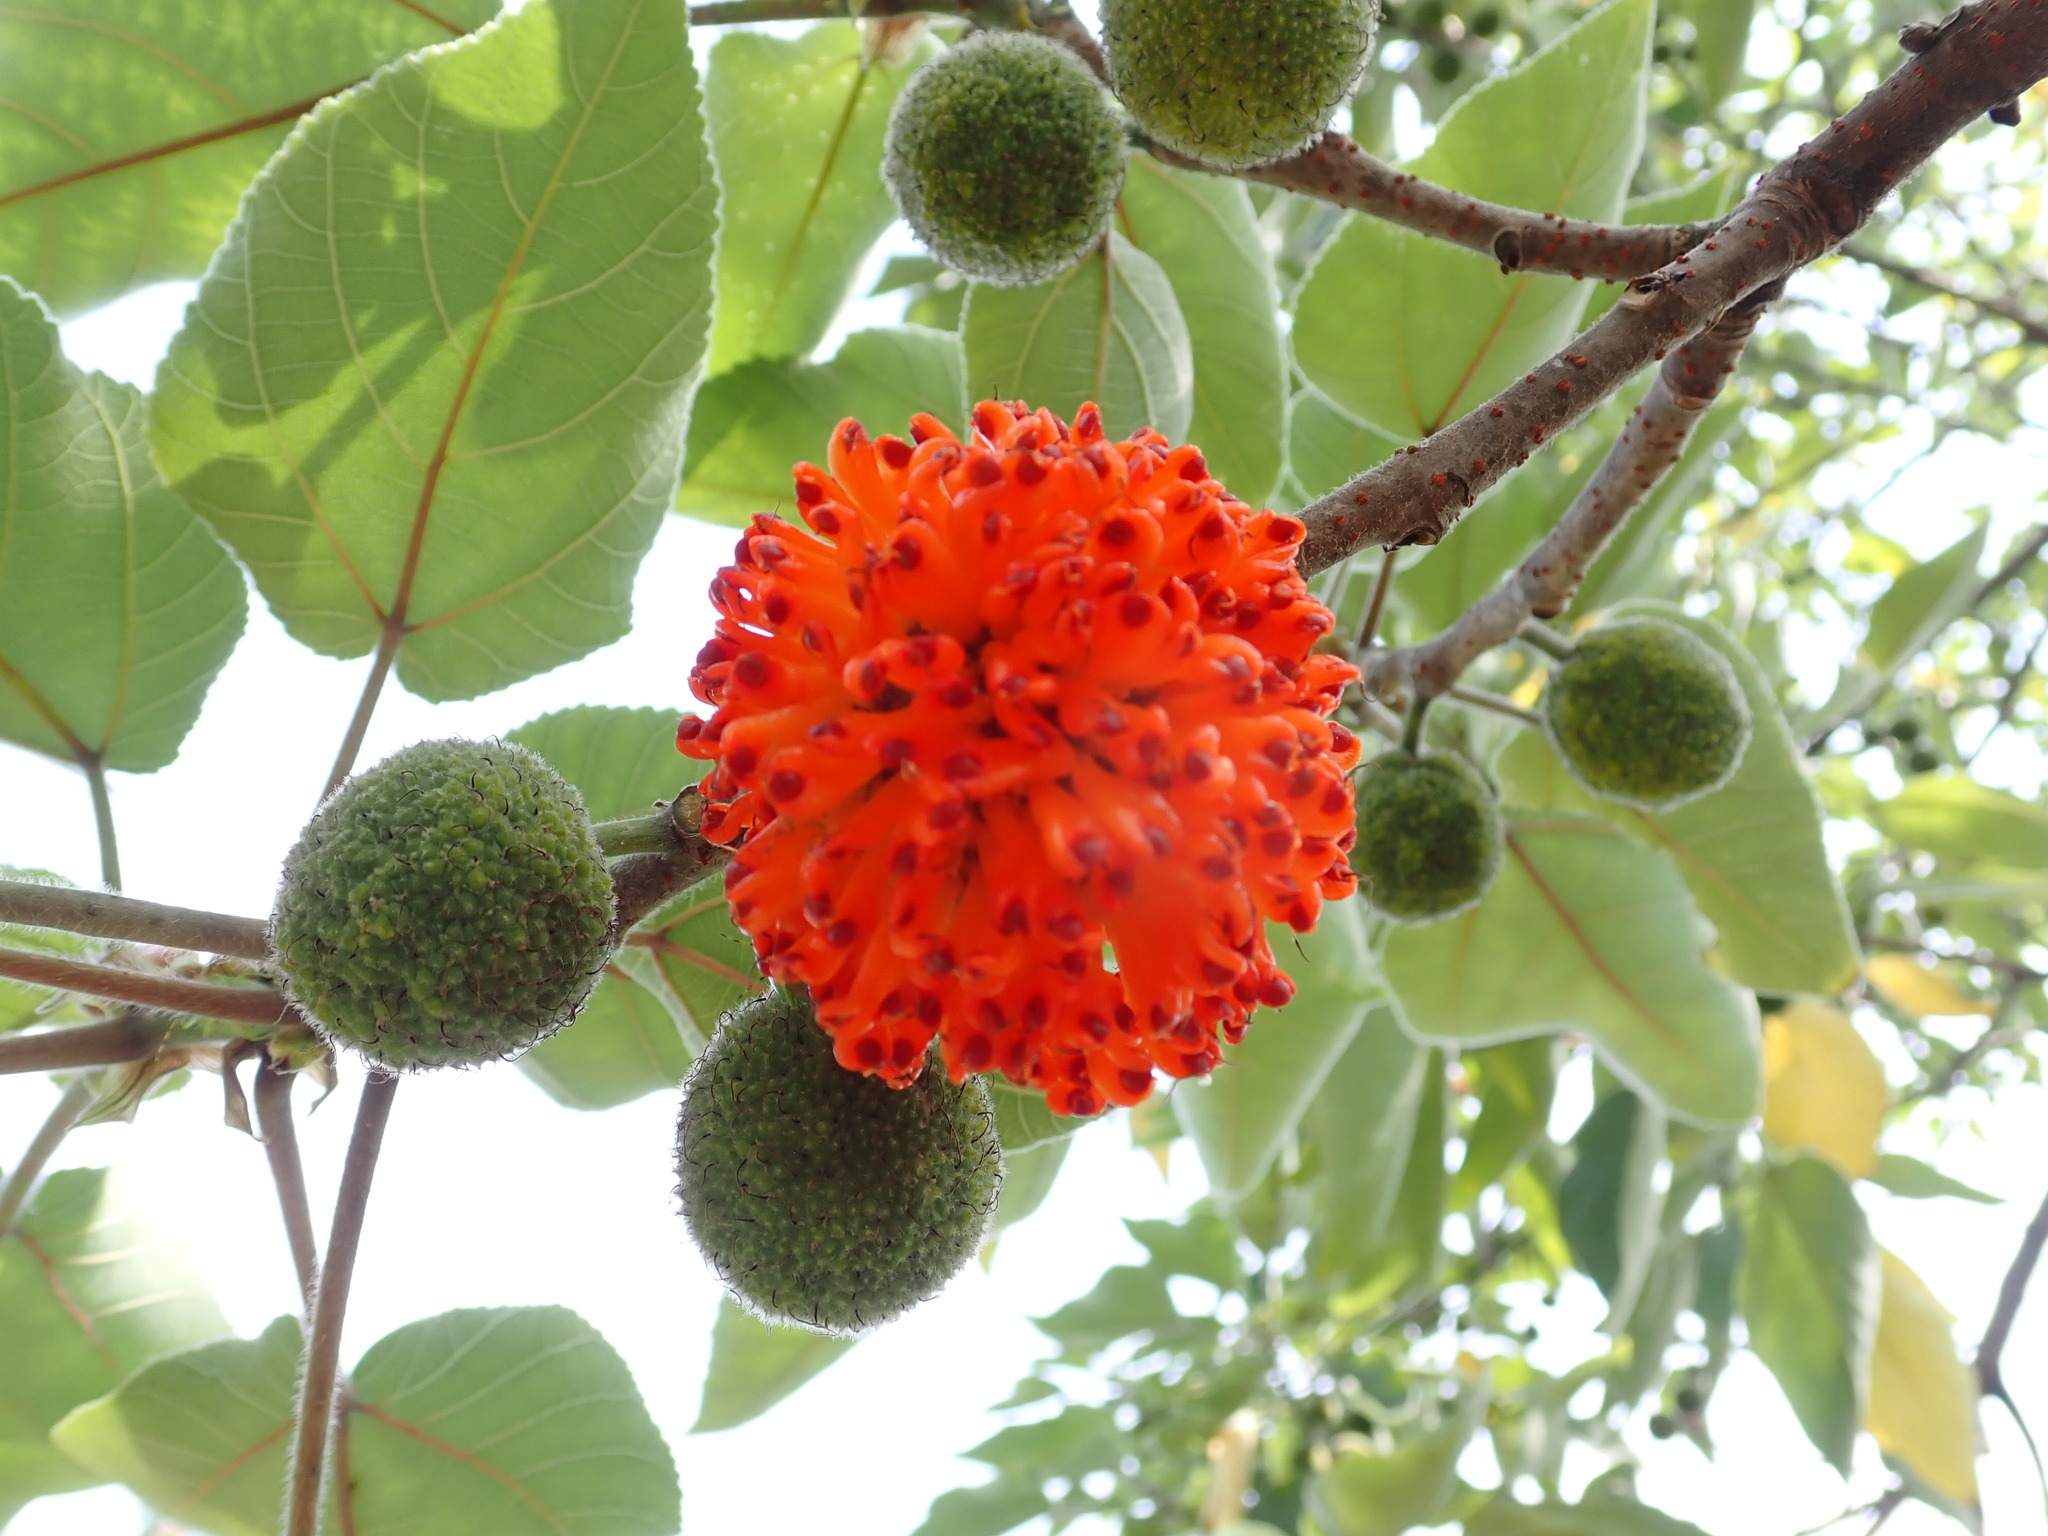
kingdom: Plantae
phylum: Tracheophyta
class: Magnoliopsida
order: Rosales
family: Moraceae
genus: Broussonetia
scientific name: Broussonetia papyrifera
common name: Paper mulberry
